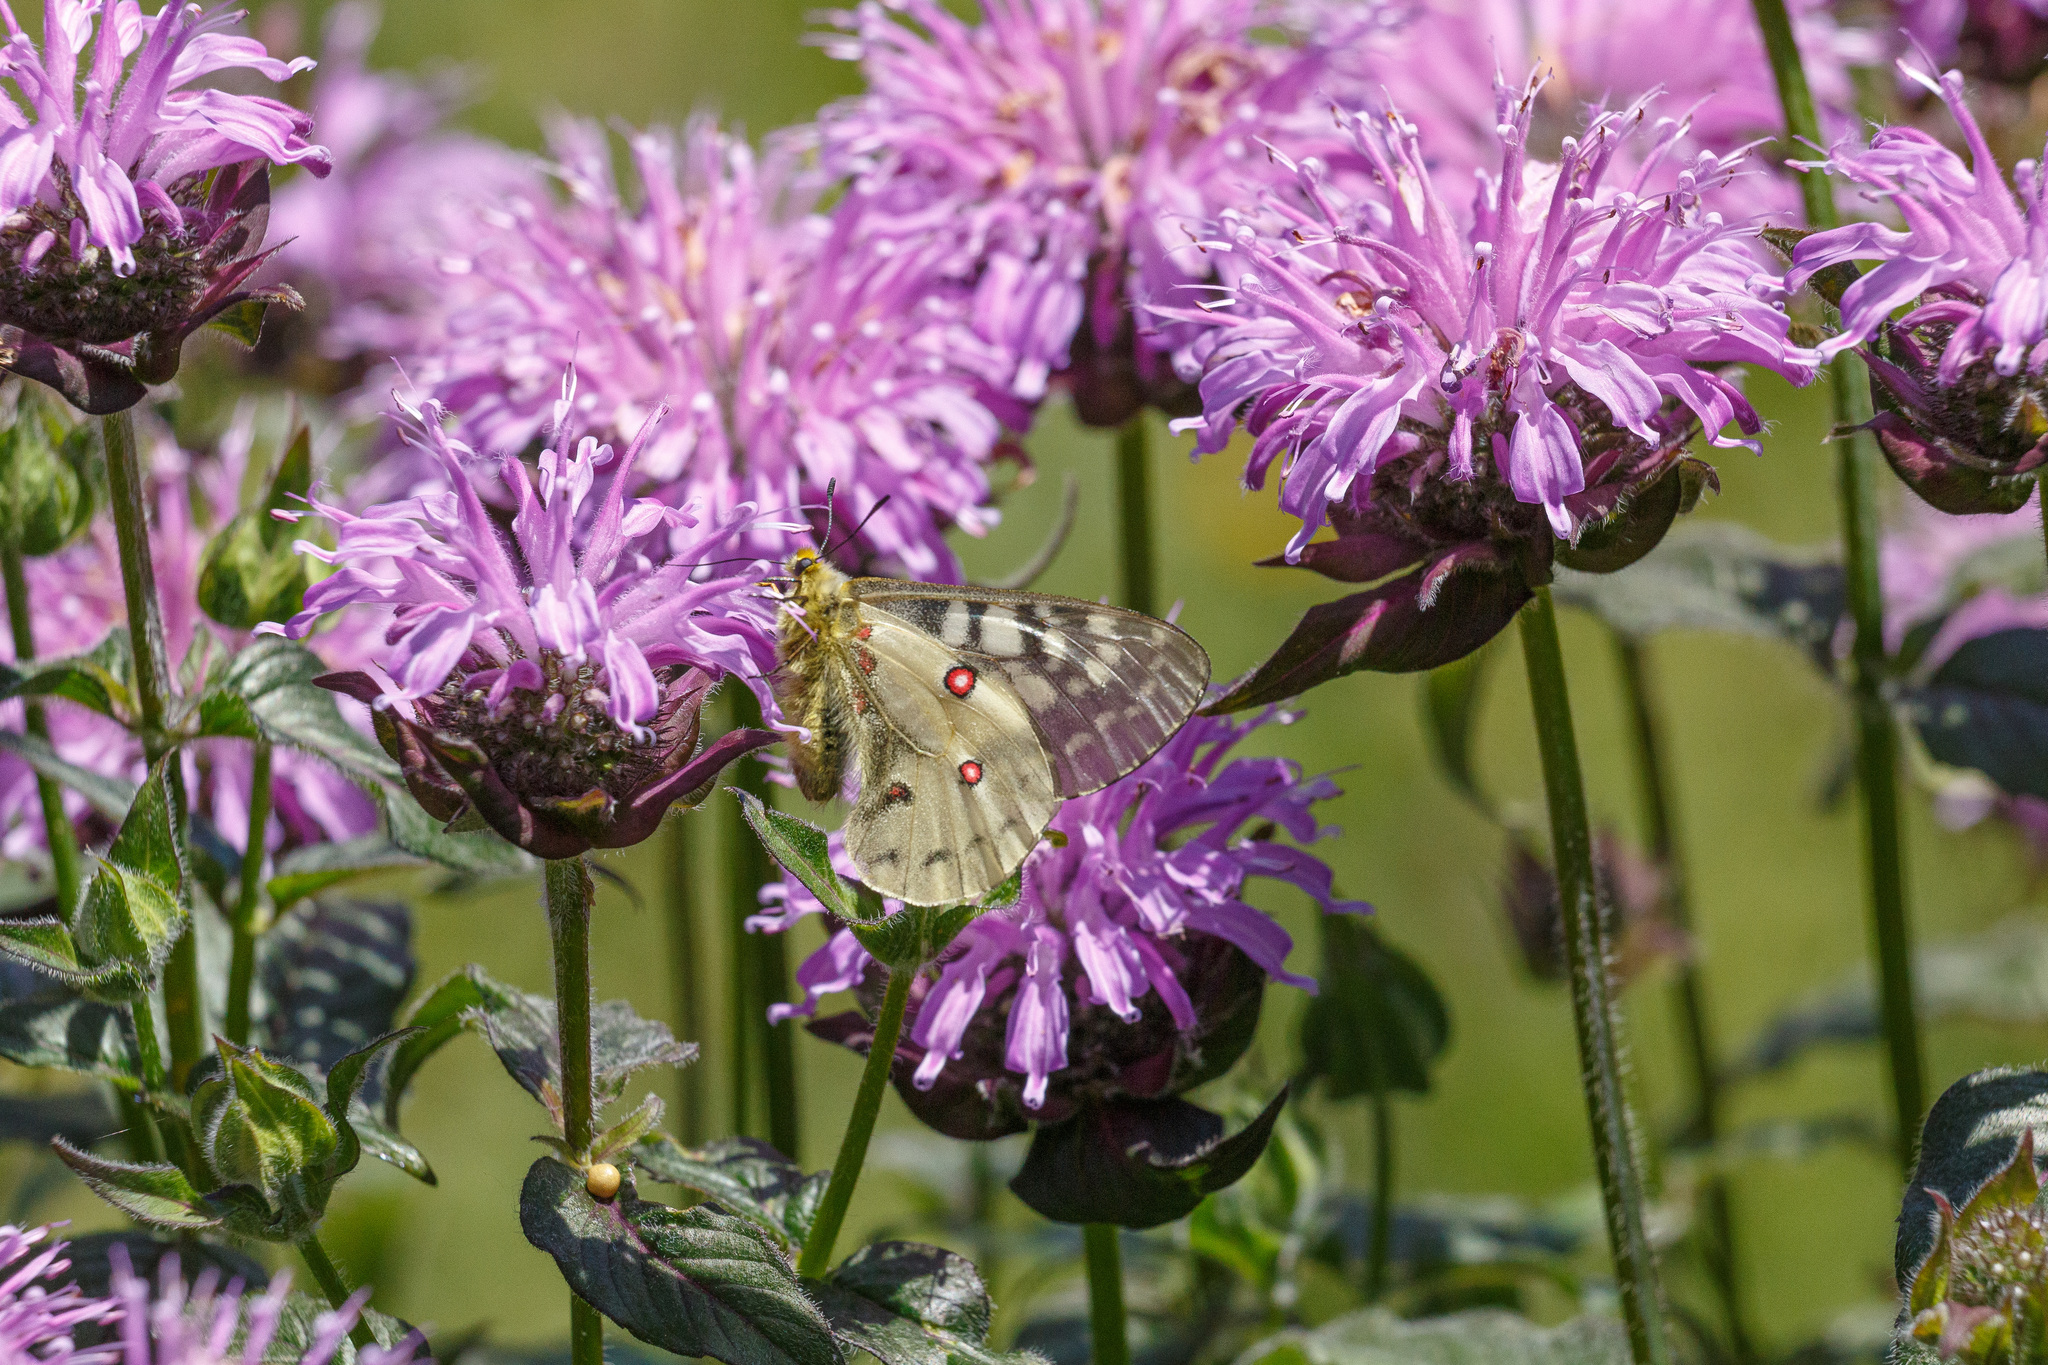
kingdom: Animalia
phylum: Arthropoda
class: Insecta
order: Lepidoptera
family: Papilionidae
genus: Parnassius
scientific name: Parnassius clodius
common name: American apollo
